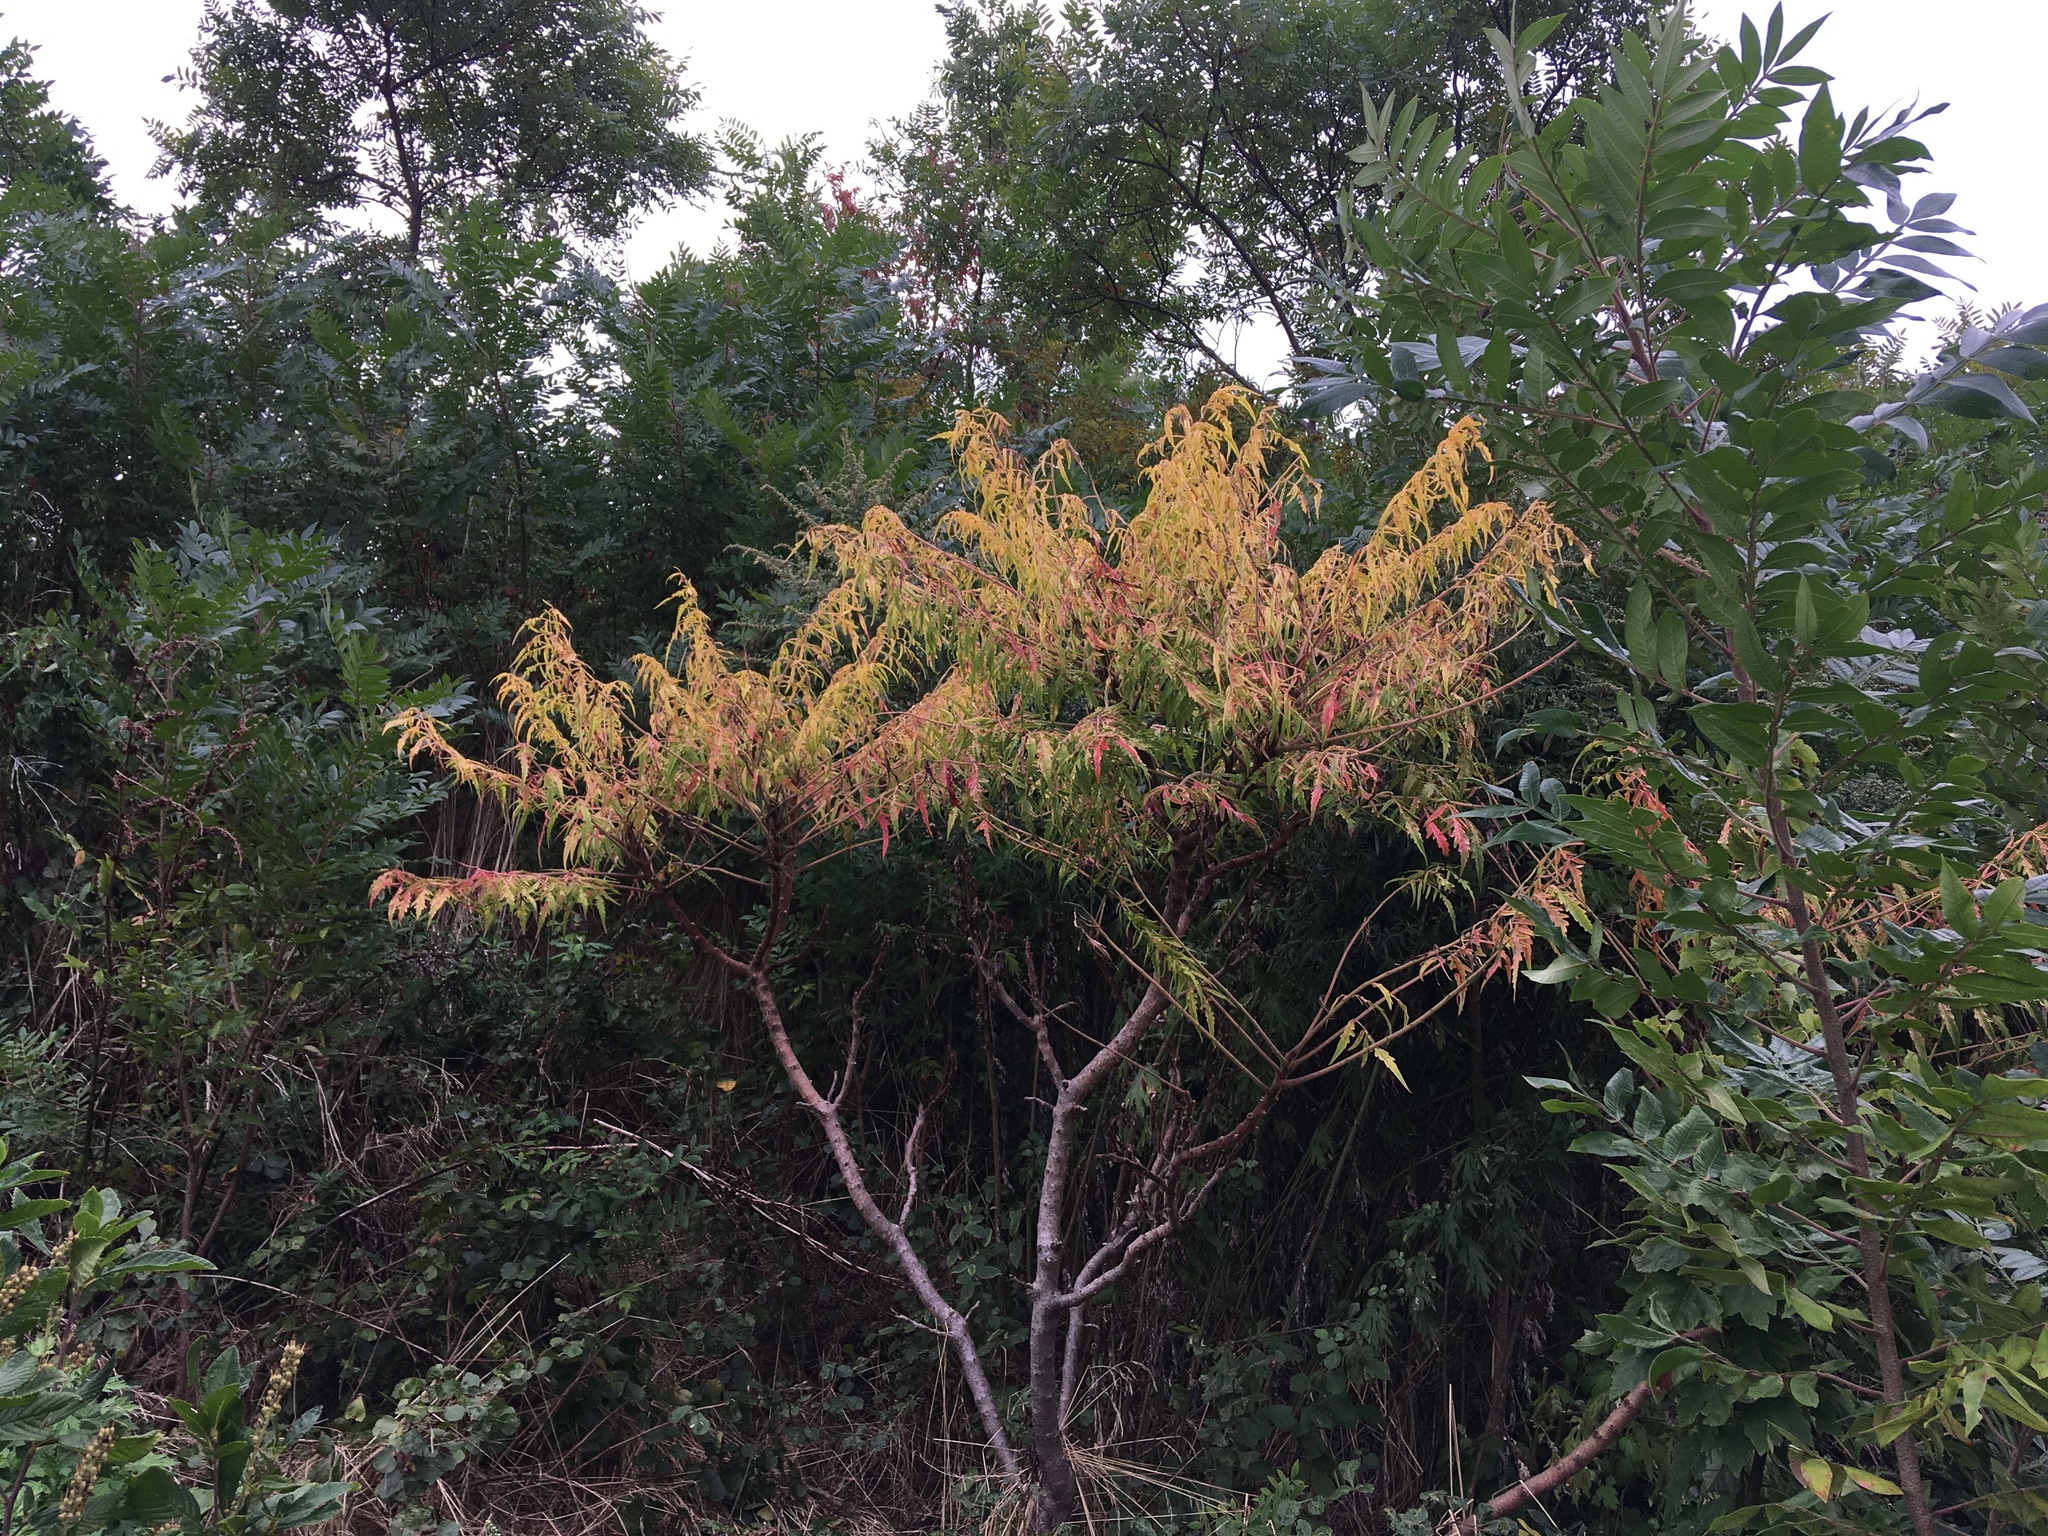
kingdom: Plantae
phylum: Tracheophyta
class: Magnoliopsida
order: Sapindales
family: Anacardiaceae
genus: Rhus
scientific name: Rhus
